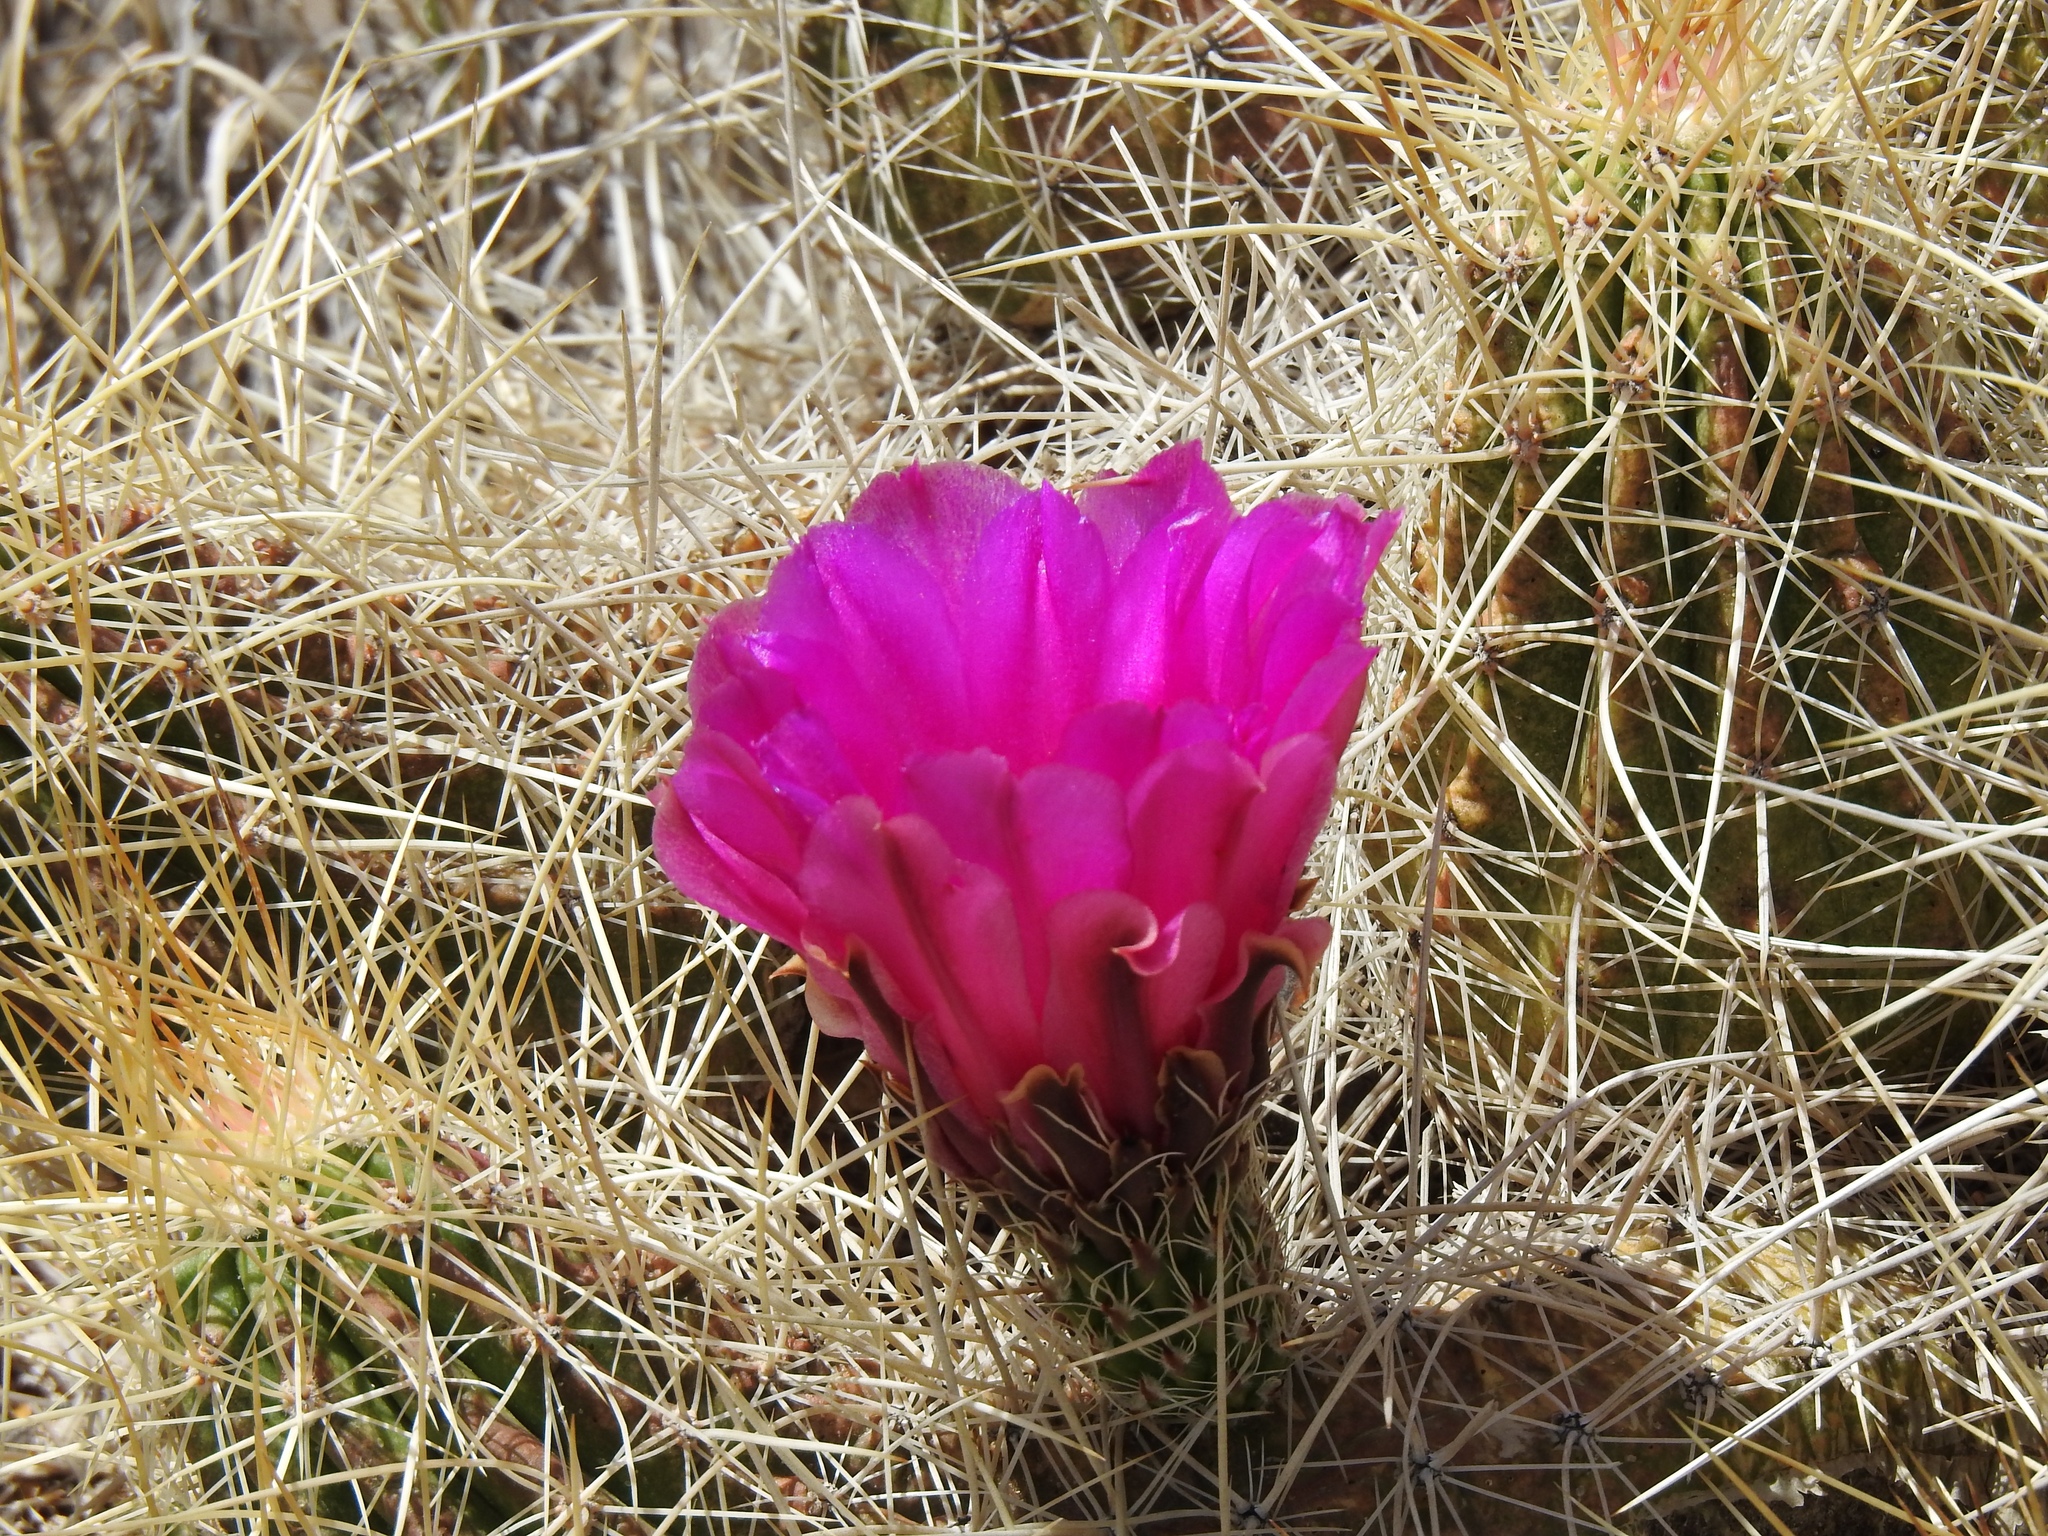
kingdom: Plantae
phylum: Tracheophyta
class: Magnoliopsida
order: Caryophyllales
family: Cactaceae
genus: Echinocereus
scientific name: Echinocereus stramineus
